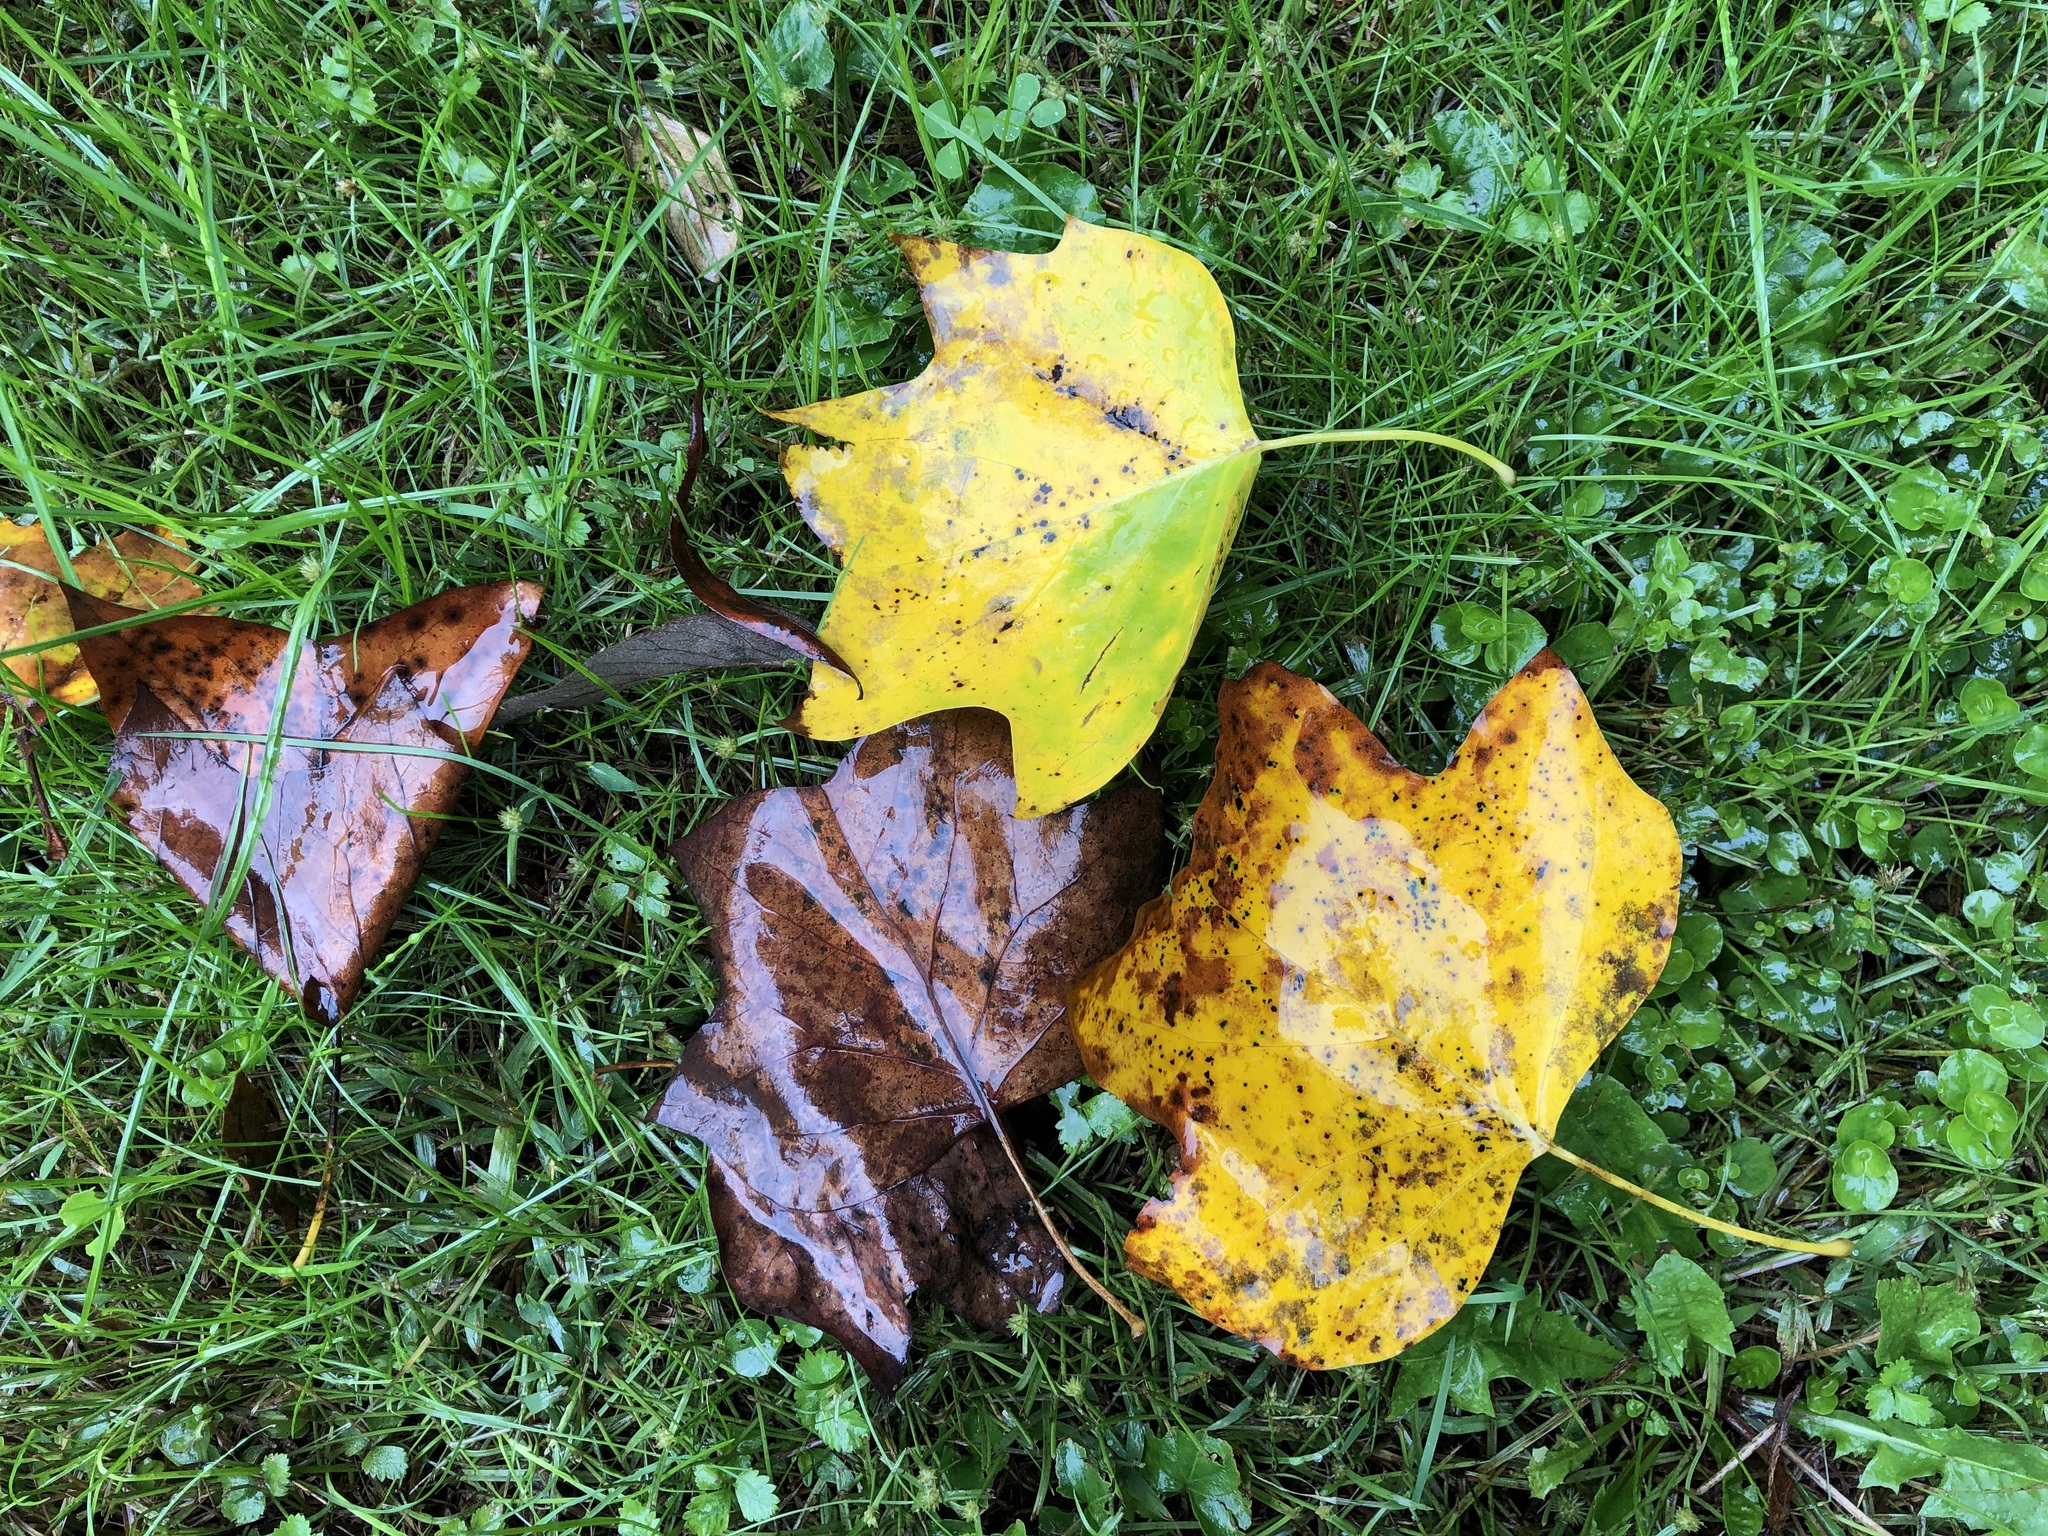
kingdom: Plantae
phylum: Tracheophyta
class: Magnoliopsida
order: Magnoliales
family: Magnoliaceae
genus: Liriodendron
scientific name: Liriodendron tulipifera
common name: Tulip tree
